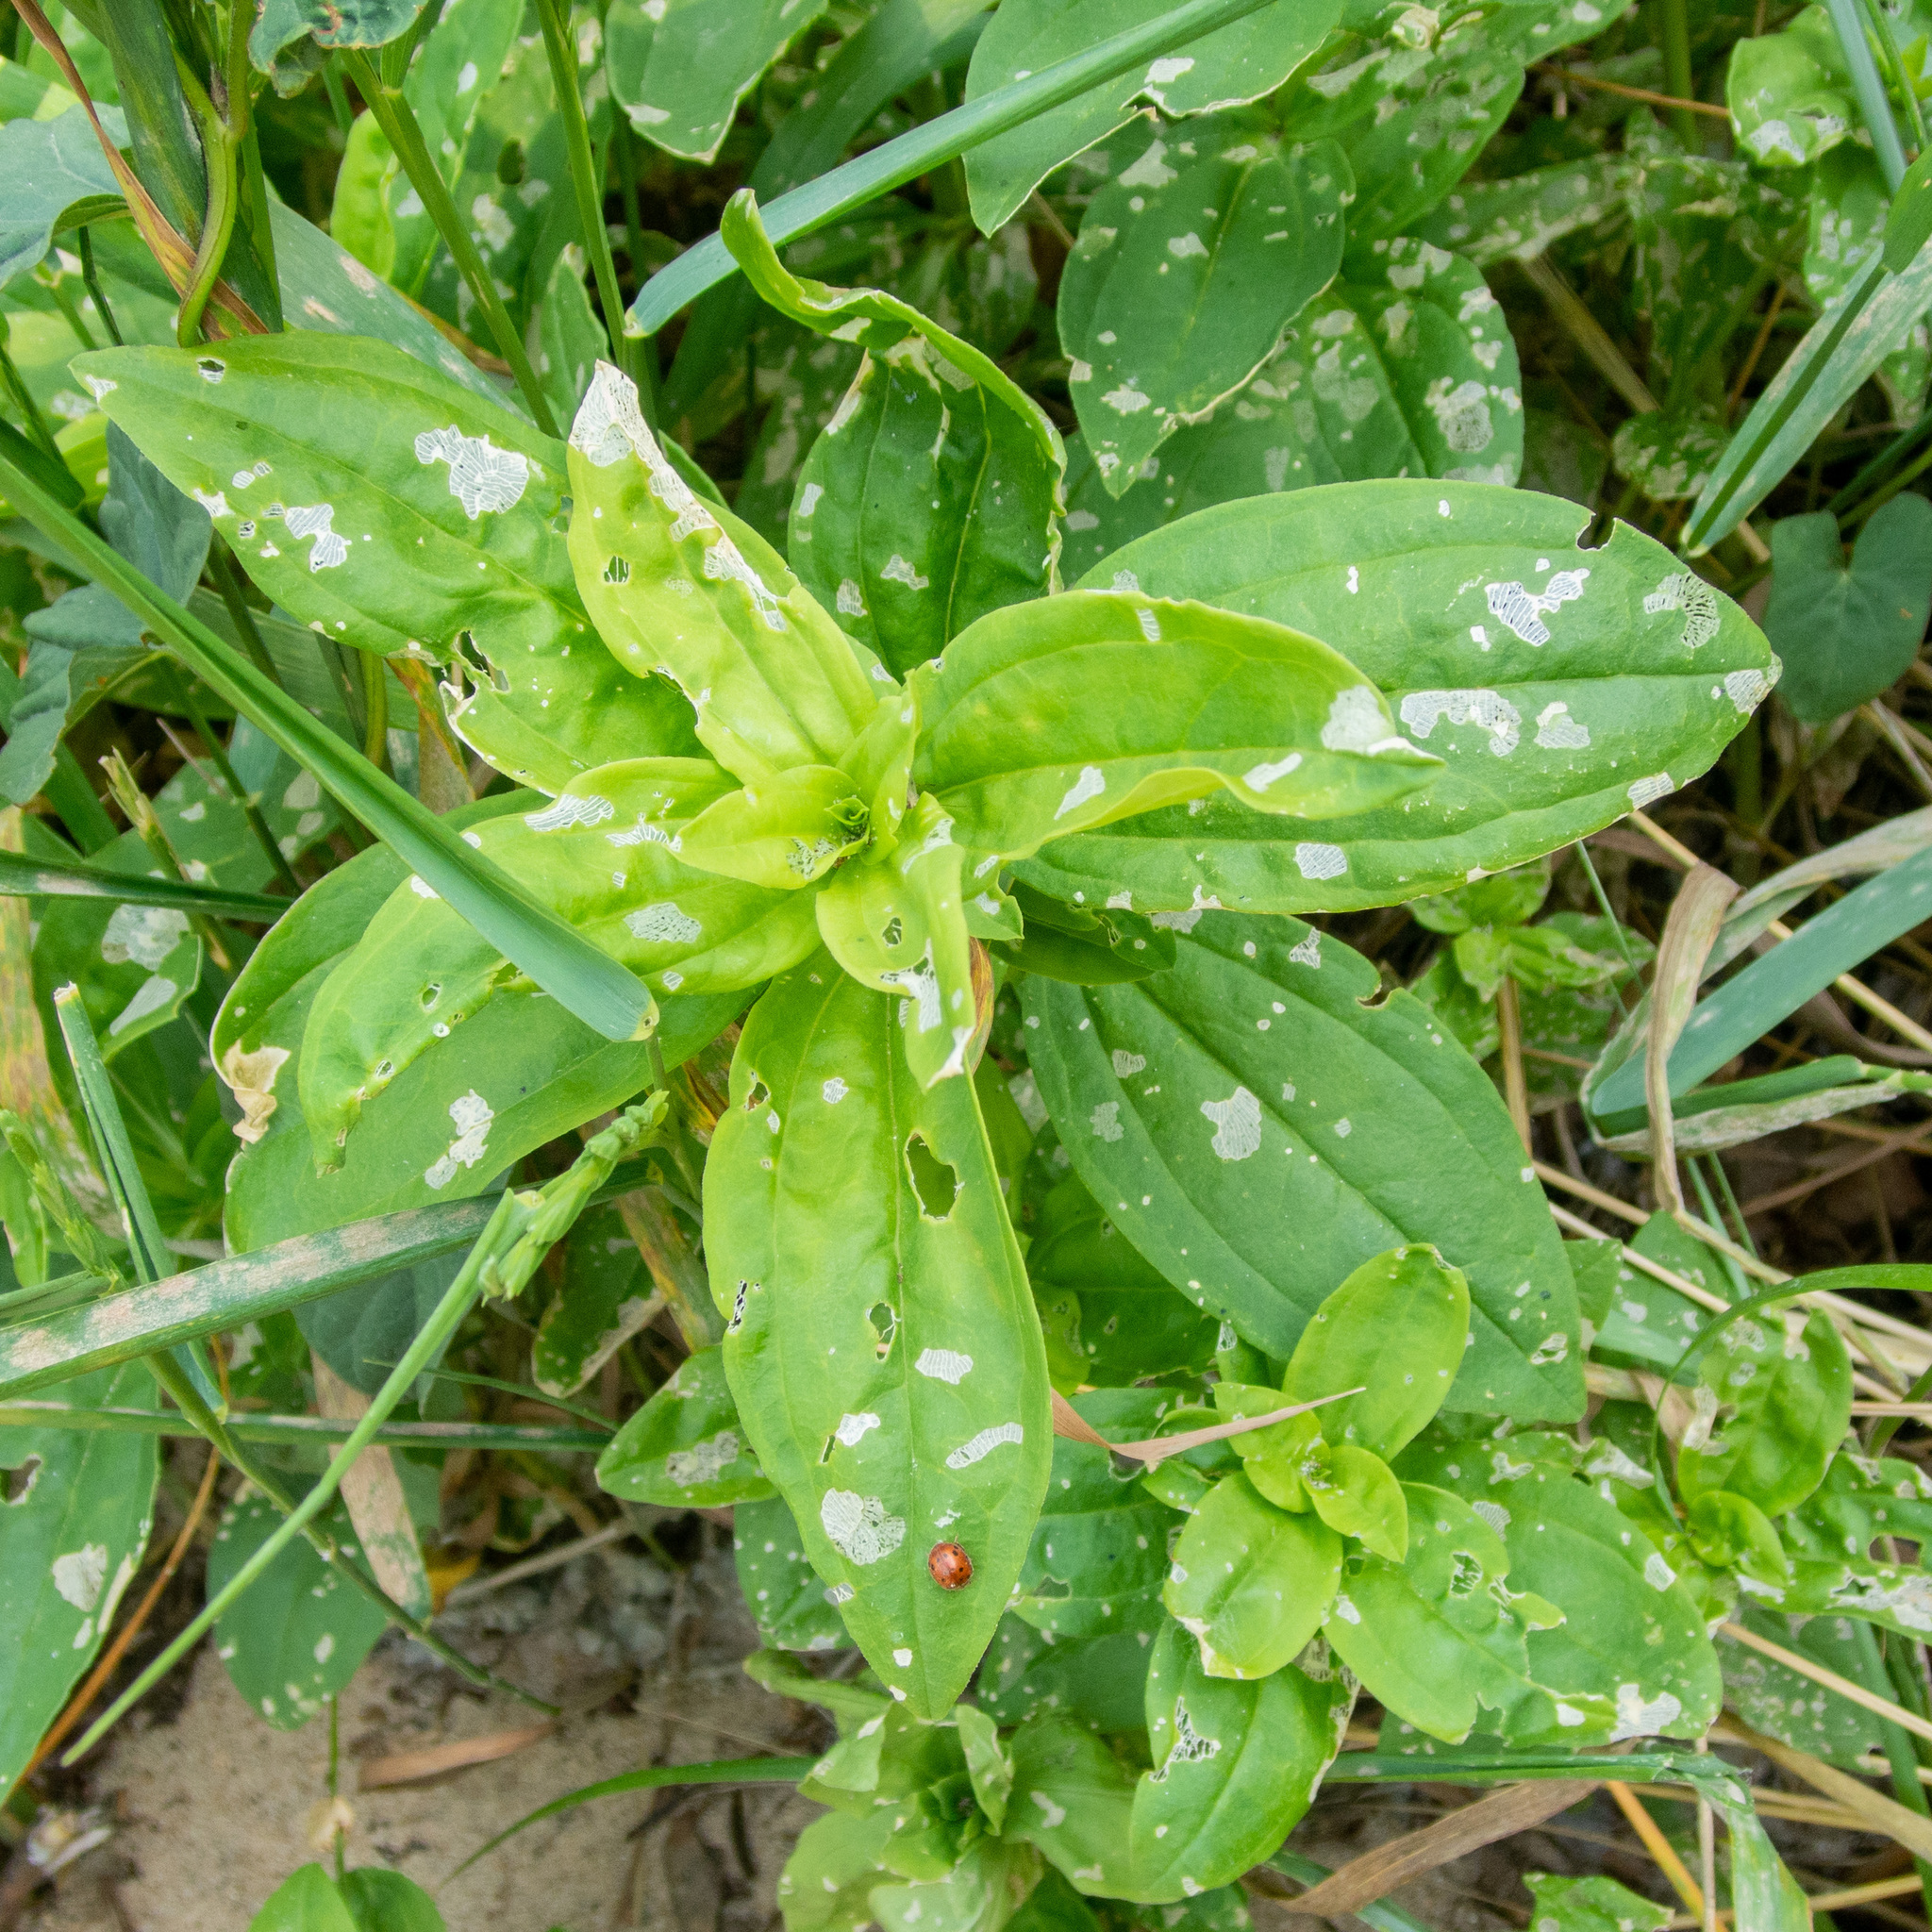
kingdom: Animalia
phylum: Arthropoda
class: Insecta
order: Coleoptera
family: Coccinellidae
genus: Subcoccinella
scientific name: Subcoccinella vigintiquatuorpunctata
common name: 24-spot ladybird
